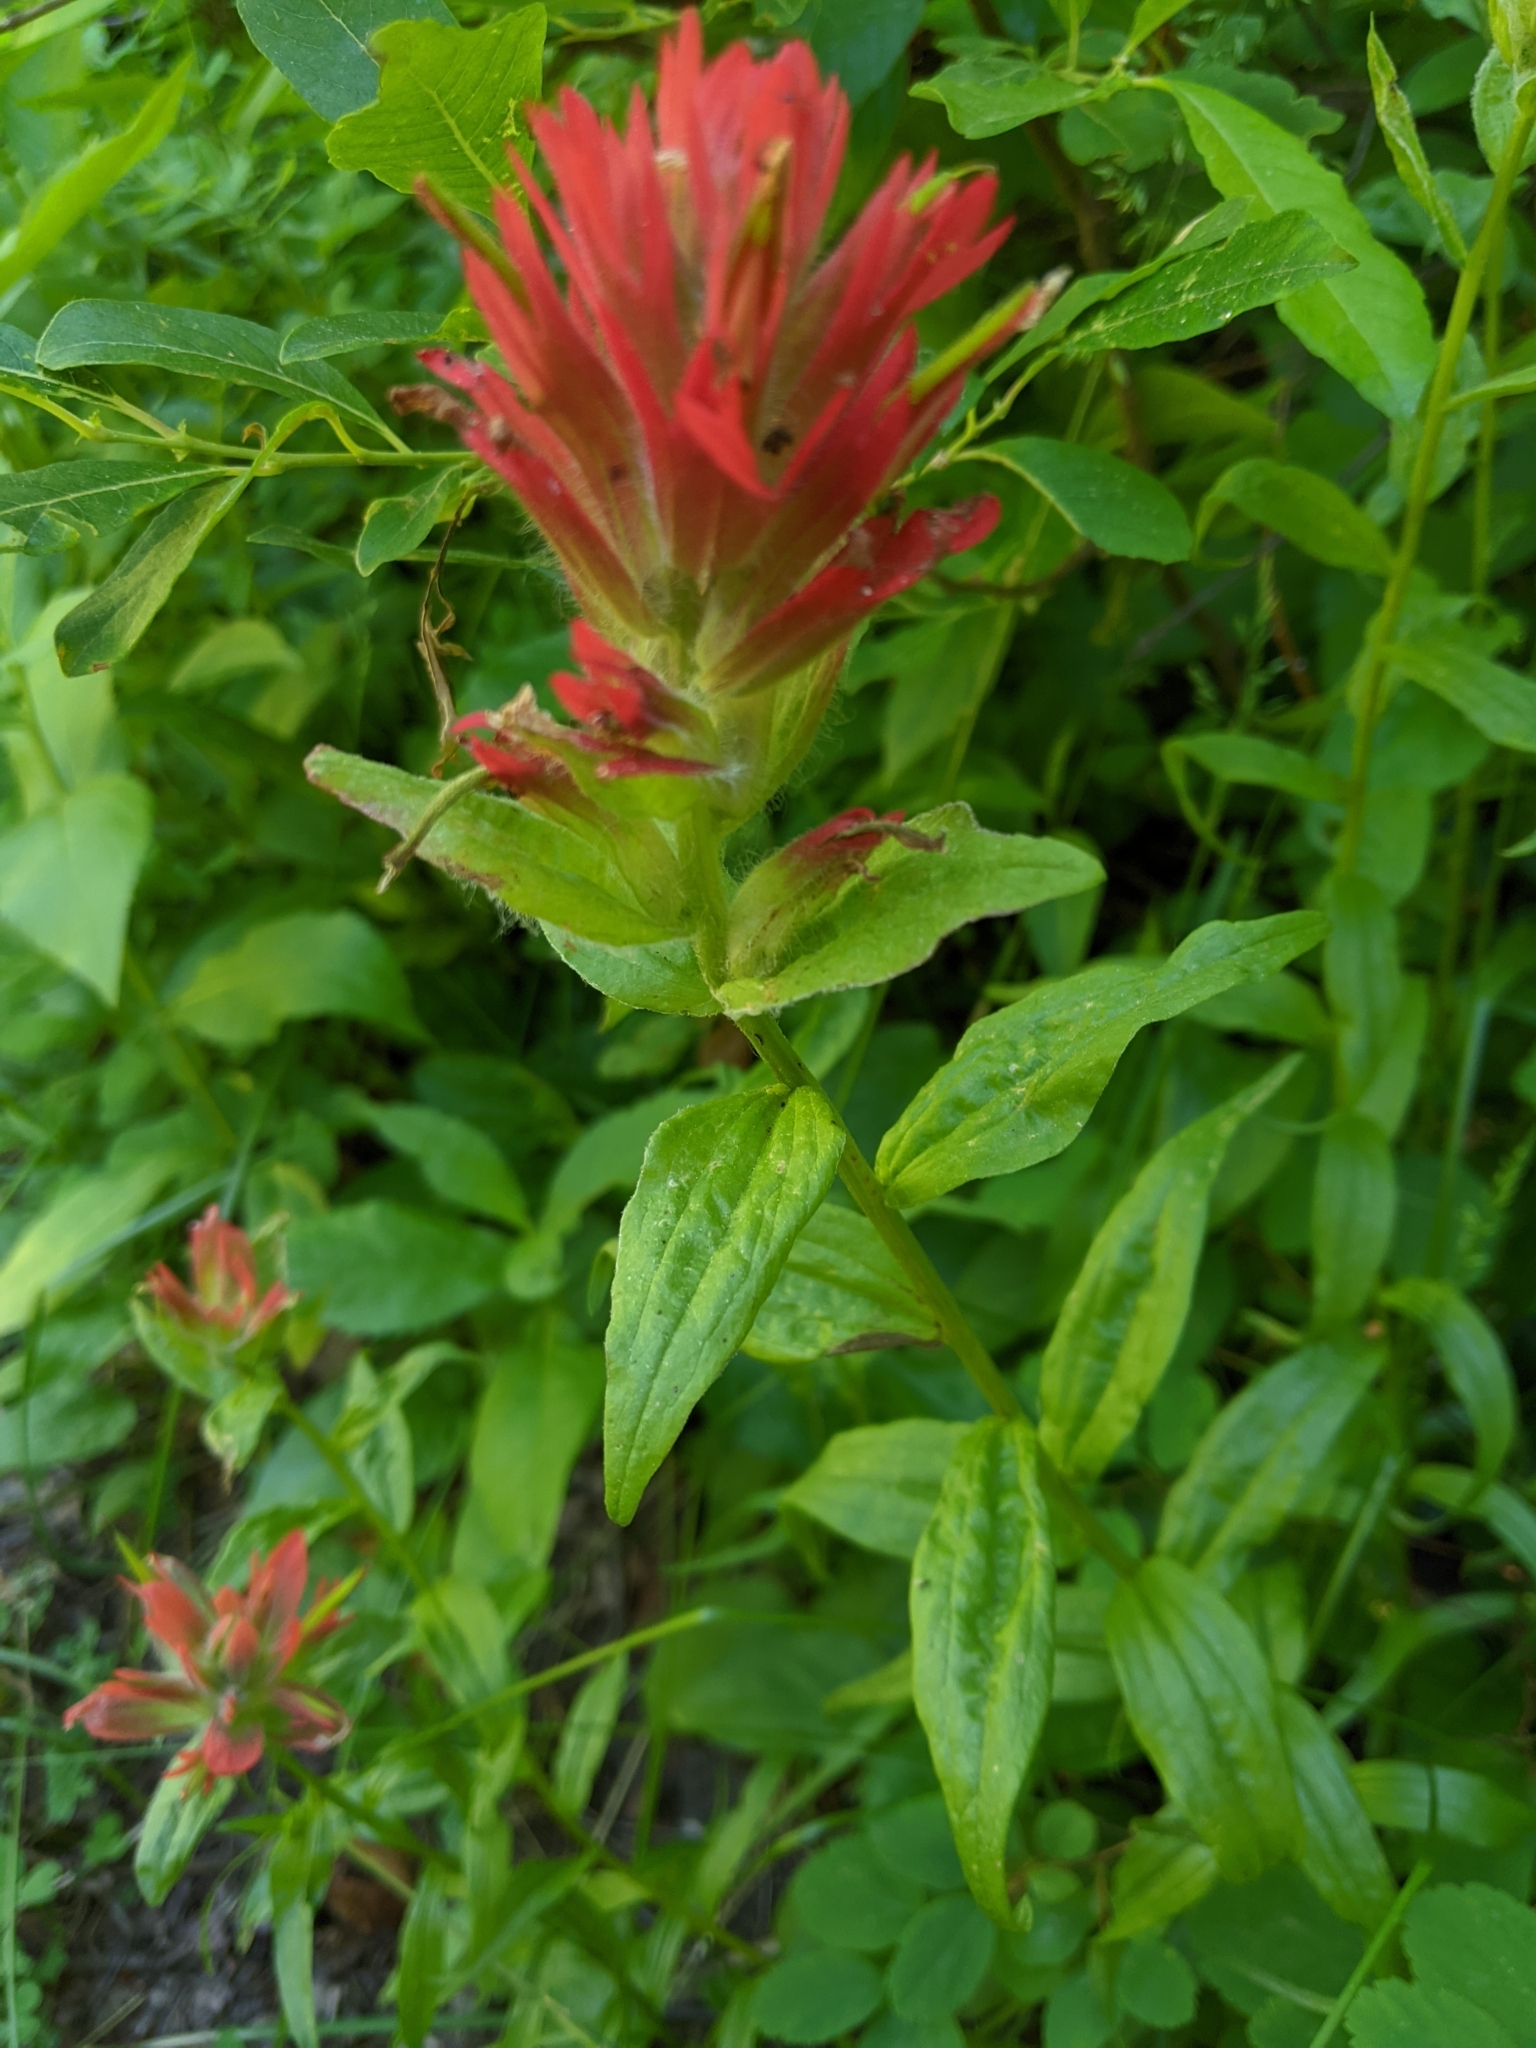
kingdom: Plantae
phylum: Tracheophyta
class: Magnoliopsida
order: Lamiales
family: Orobanchaceae
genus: Castilleja
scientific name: Castilleja miniata
